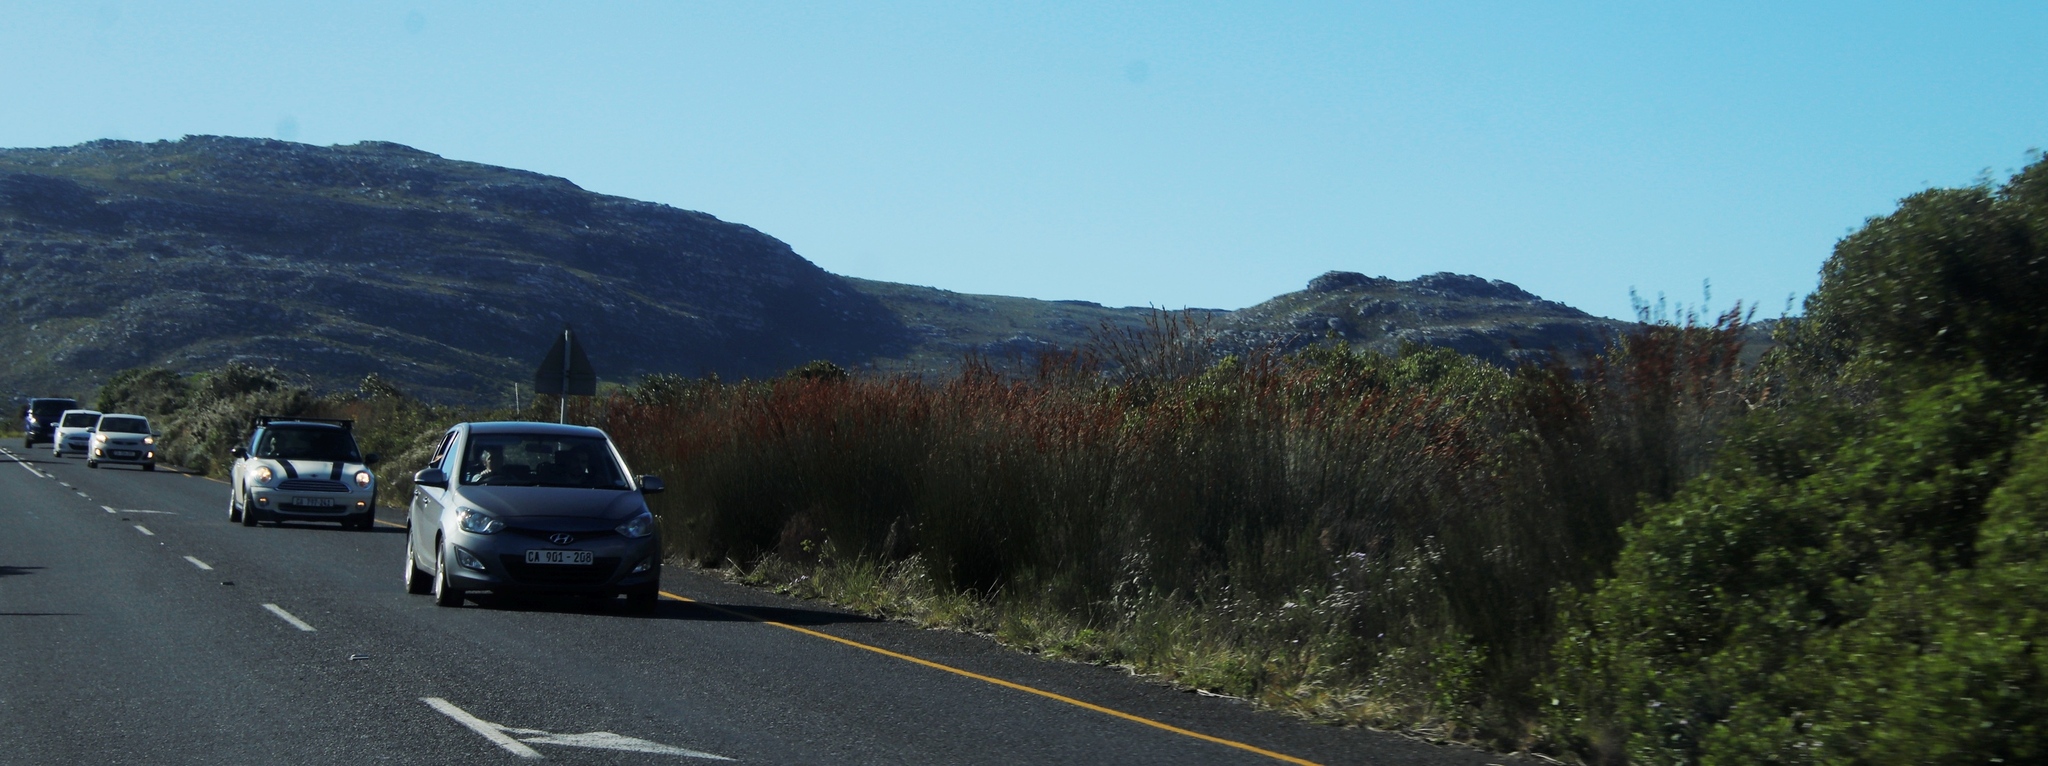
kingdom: Plantae
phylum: Tracheophyta
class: Liliopsida
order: Poales
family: Restionaceae
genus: Thamnochortus
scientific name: Thamnochortus insignis
